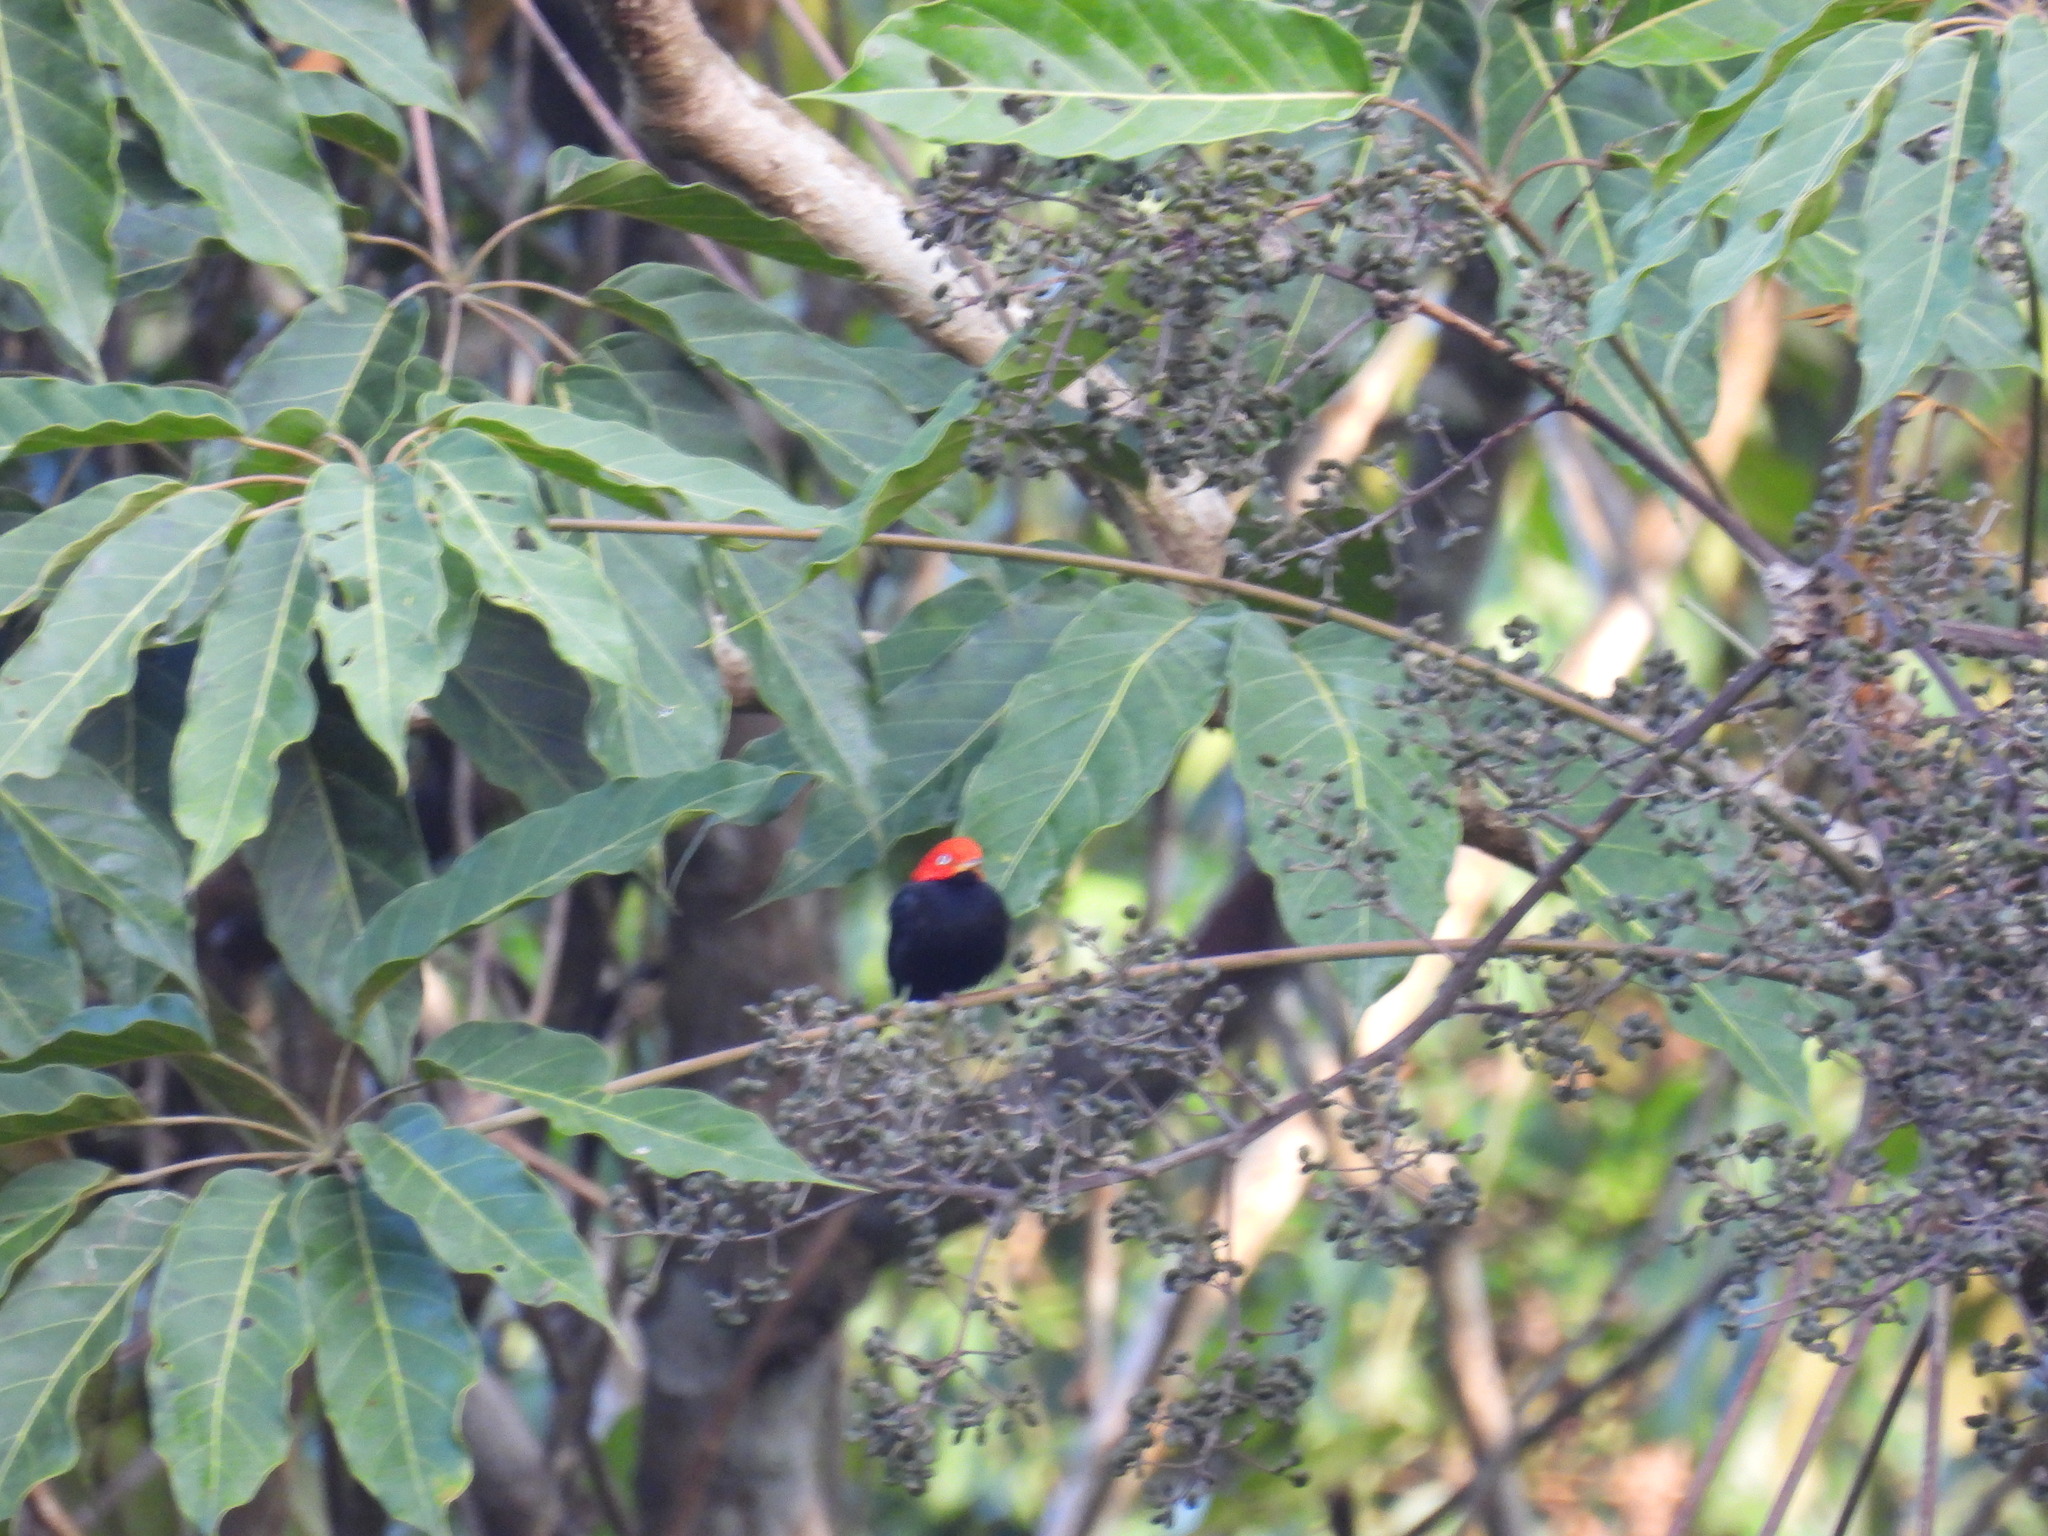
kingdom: Animalia
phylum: Chordata
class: Aves
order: Passeriformes
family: Pipridae
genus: Pipra
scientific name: Pipra mentalis
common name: Red-capped manakin
